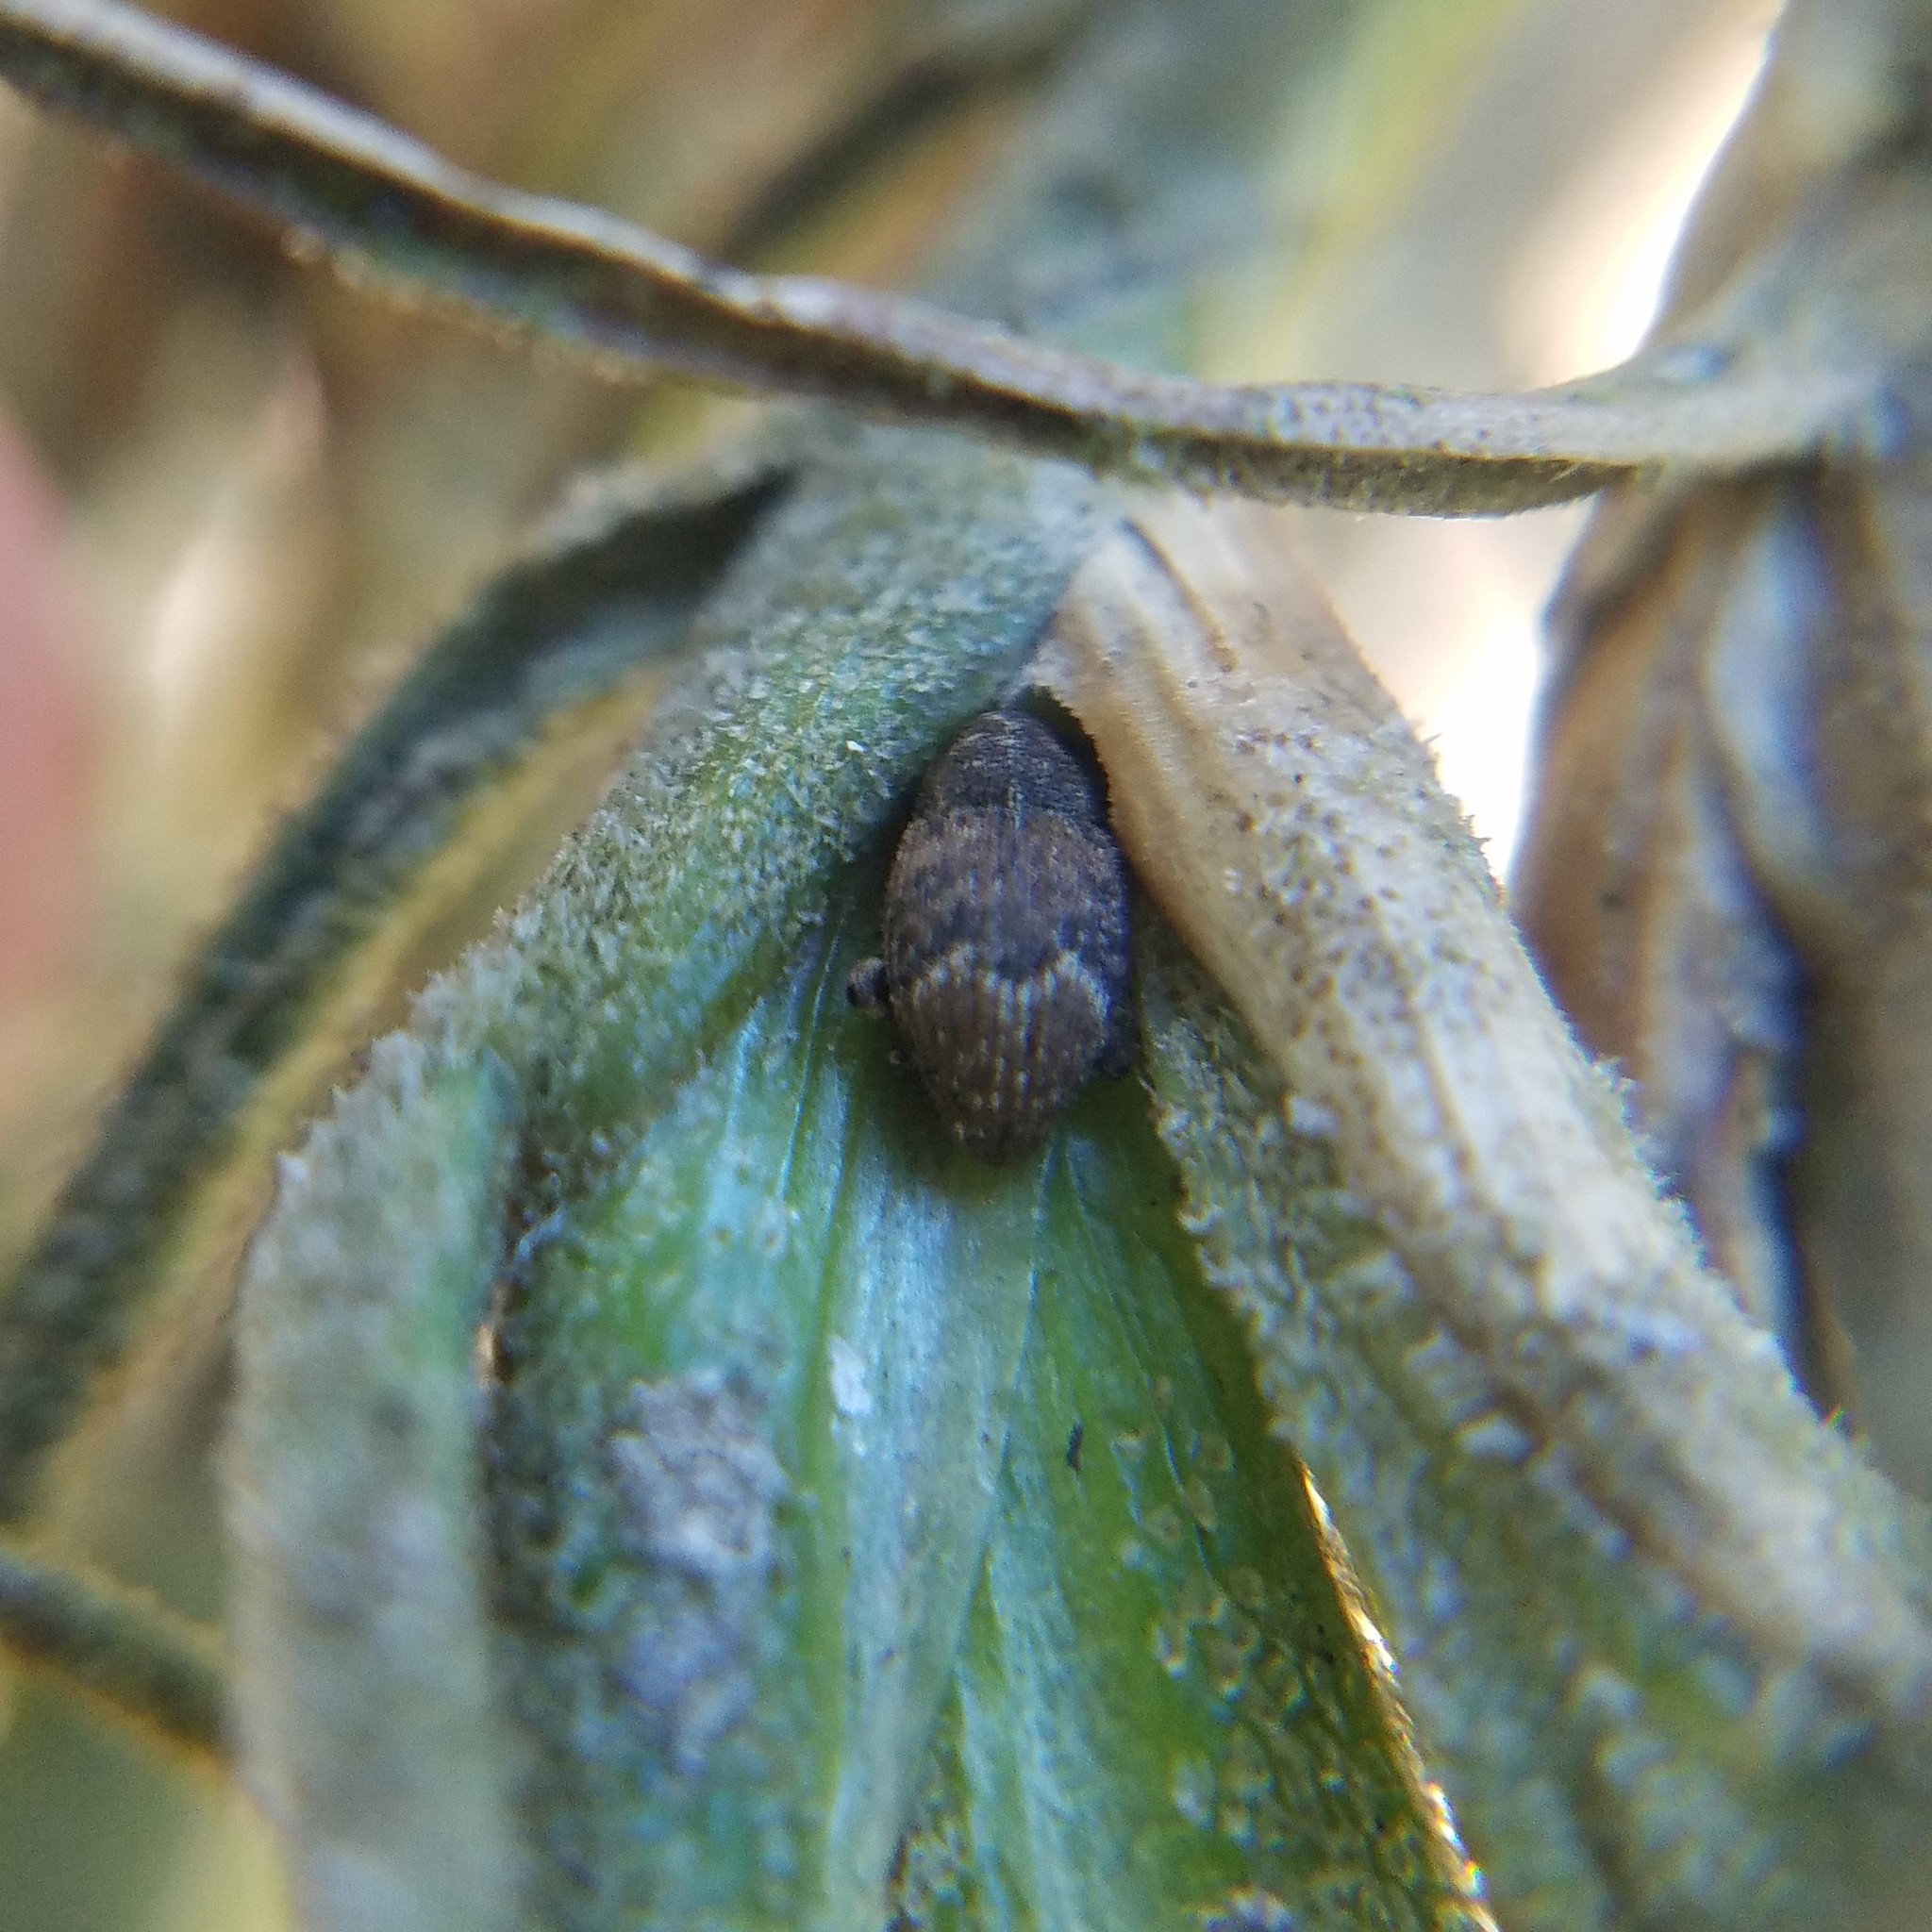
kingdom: Animalia
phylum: Arthropoda
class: Insecta
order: Coleoptera
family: Curculionidae
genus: Pseudoacalles
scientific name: Pseudoacalles nuchalis
